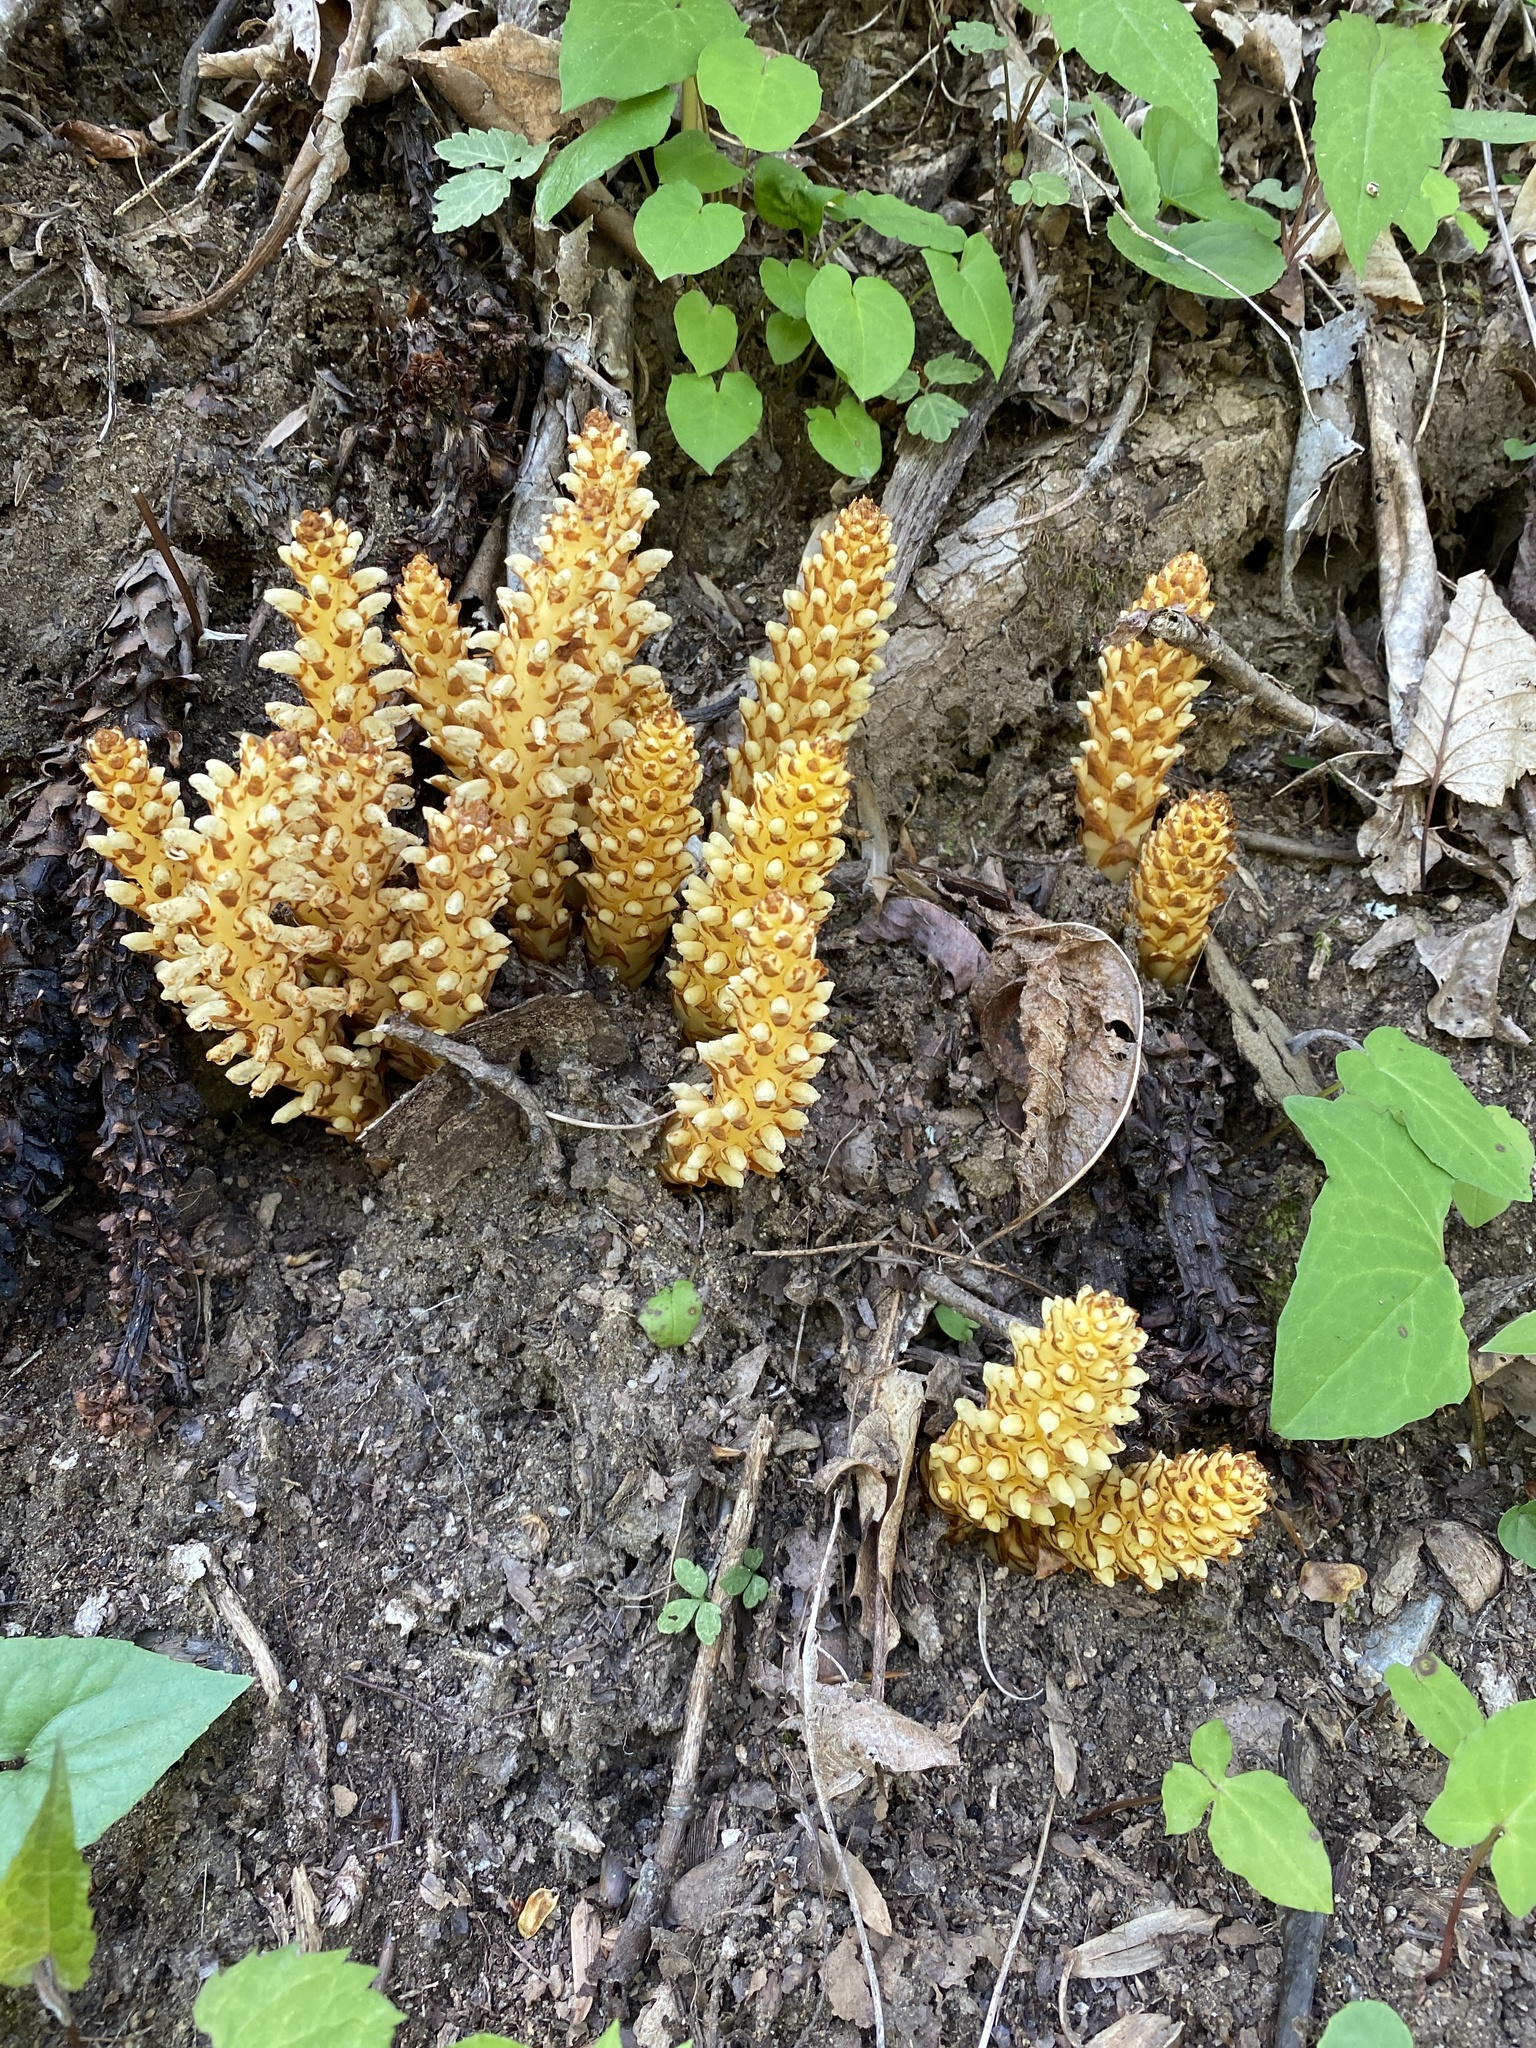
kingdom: Plantae
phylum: Tracheophyta
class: Magnoliopsida
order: Lamiales
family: Orobanchaceae
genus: Conopholis
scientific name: Conopholis americana
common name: American cancer-root
